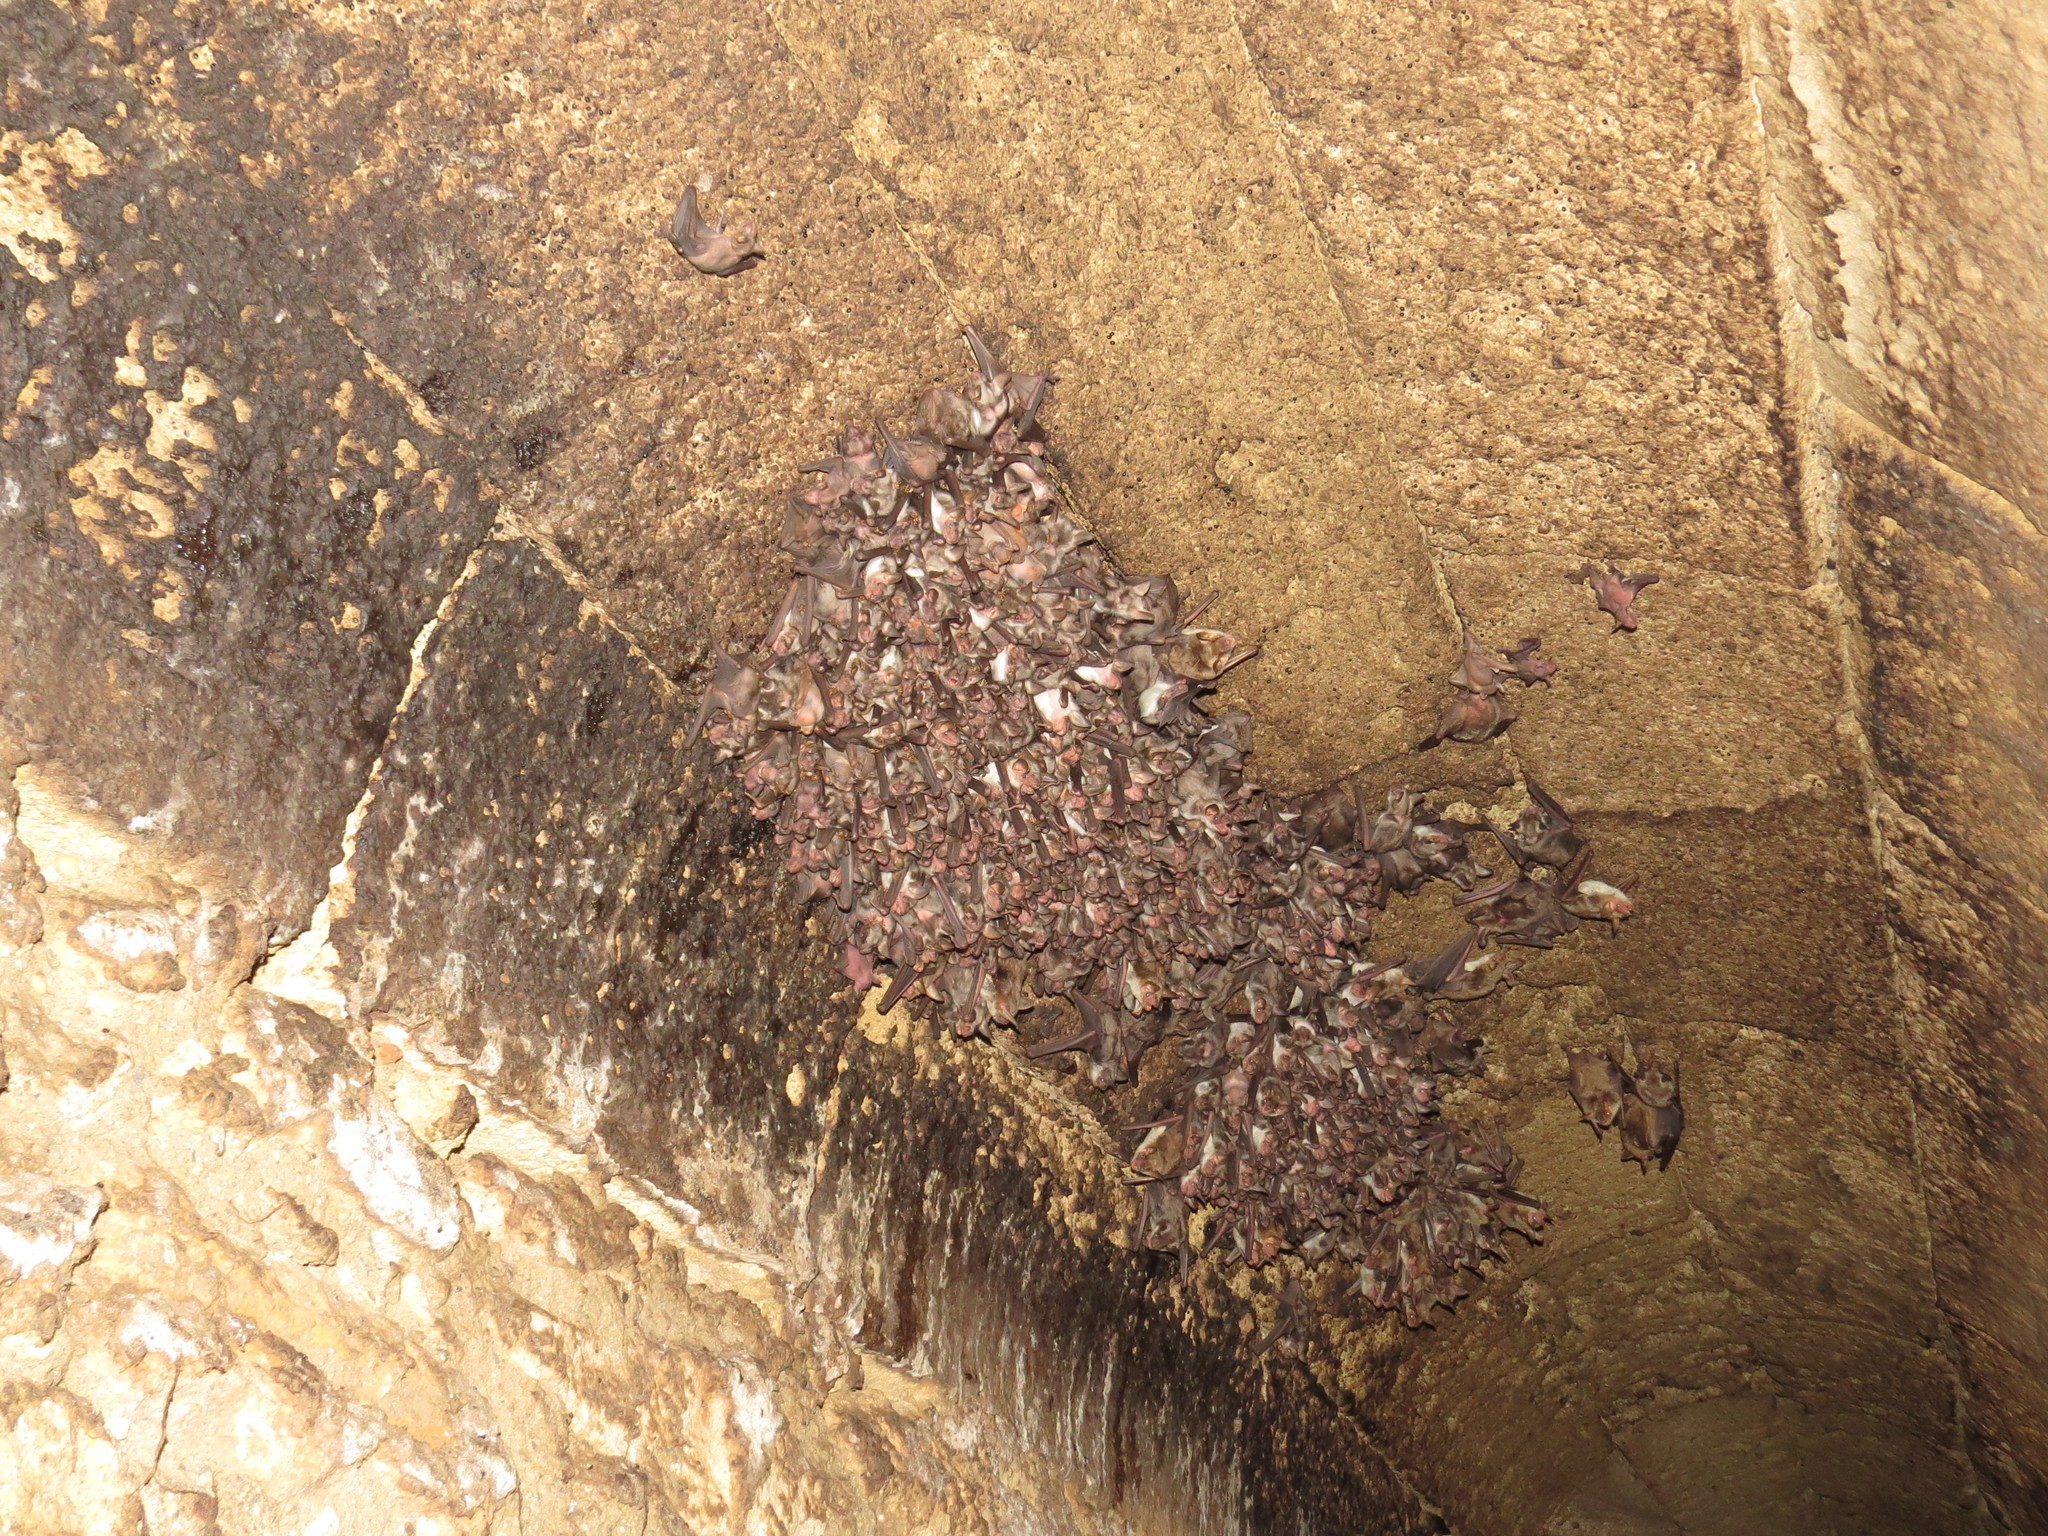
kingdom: Animalia
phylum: Chordata
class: Mammalia
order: Chiroptera
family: Vespertilionidae
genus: Myotis
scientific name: Myotis blythii
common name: Lesser mouse-eared myotis
